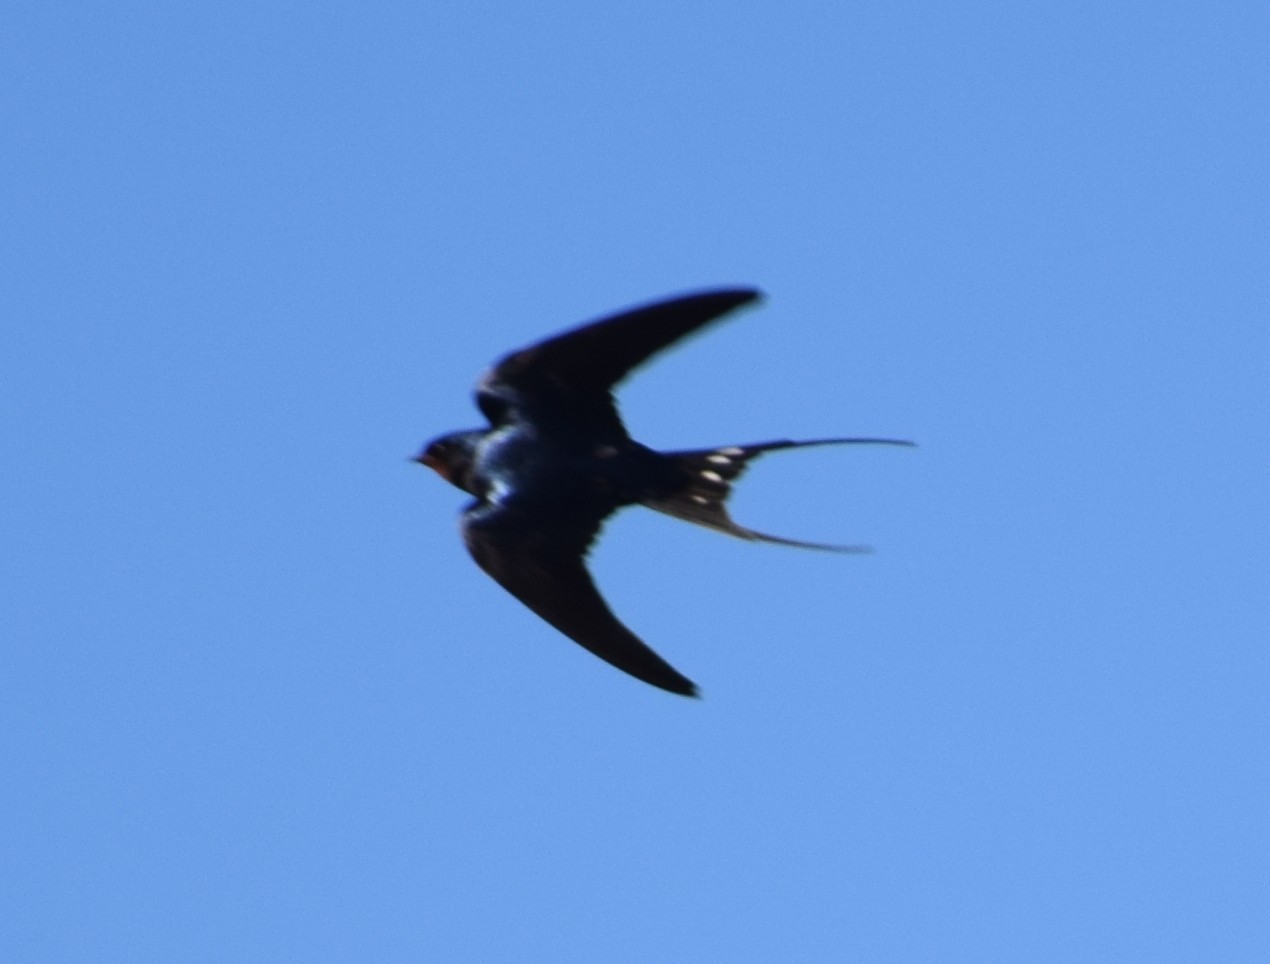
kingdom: Animalia
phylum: Chordata
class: Aves
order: Passeriformes
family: Hirundinidae
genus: Hirundo
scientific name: Hirundo rustica
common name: Barn swallow
